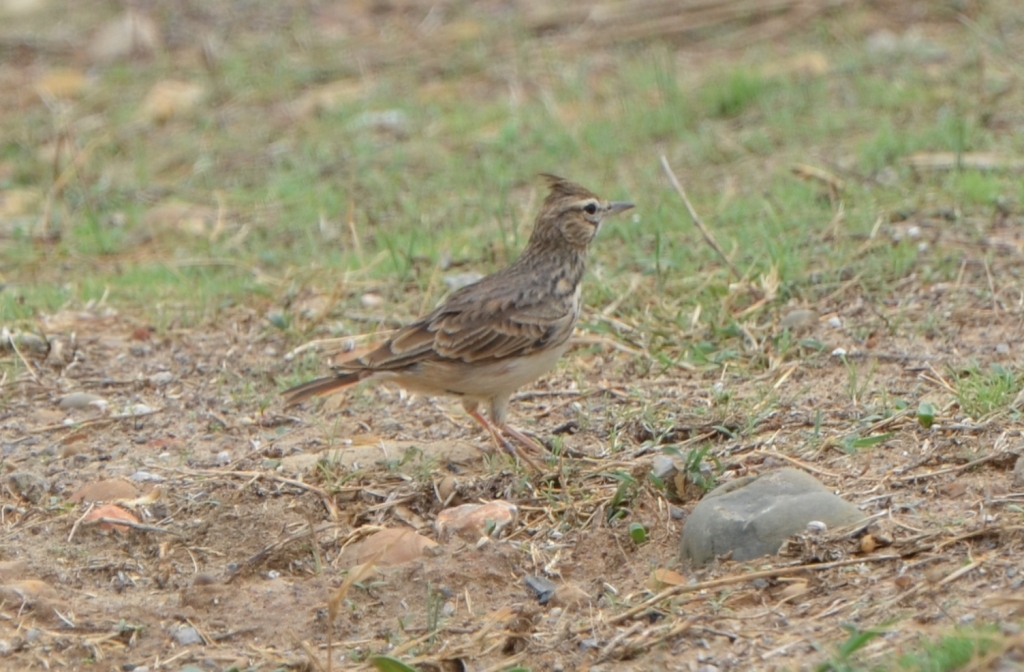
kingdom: Animalia
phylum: Chordata
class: Aves
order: Passeriformes
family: Alaudidae
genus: Galerida
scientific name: Galerida cristata
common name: Crested lark
